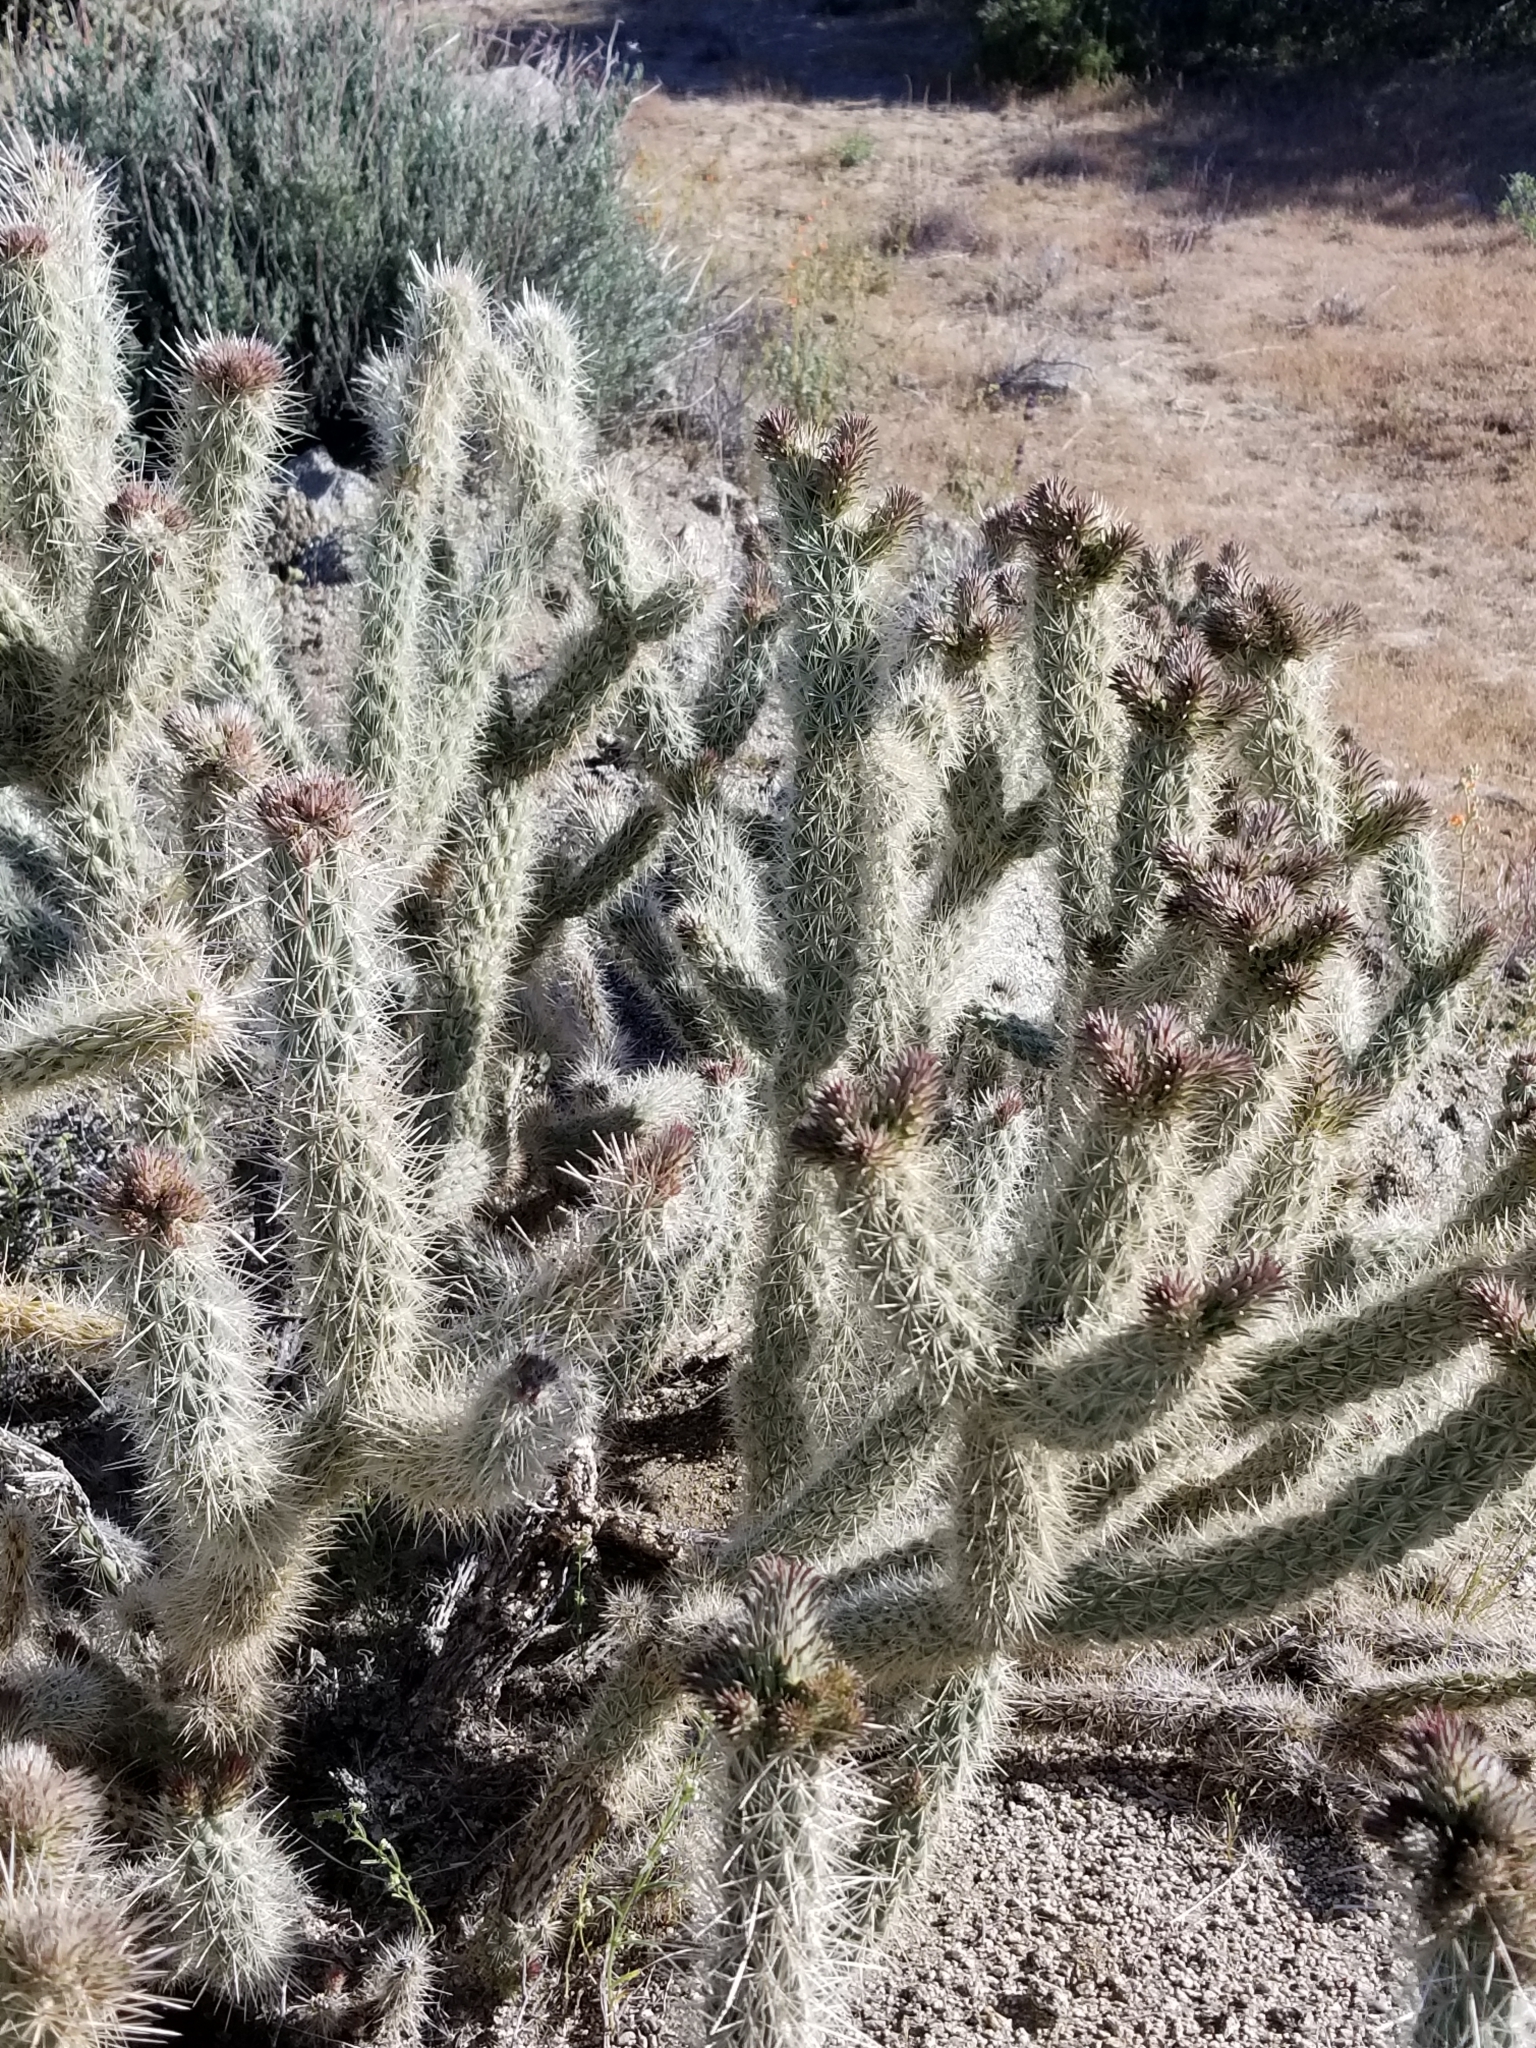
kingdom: Plantae
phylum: Tracheophyta
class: Magnoliopsida
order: Caryophyllales
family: Cactaceae
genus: Cylindropuntia
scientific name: Cylindropuntia ganderi
